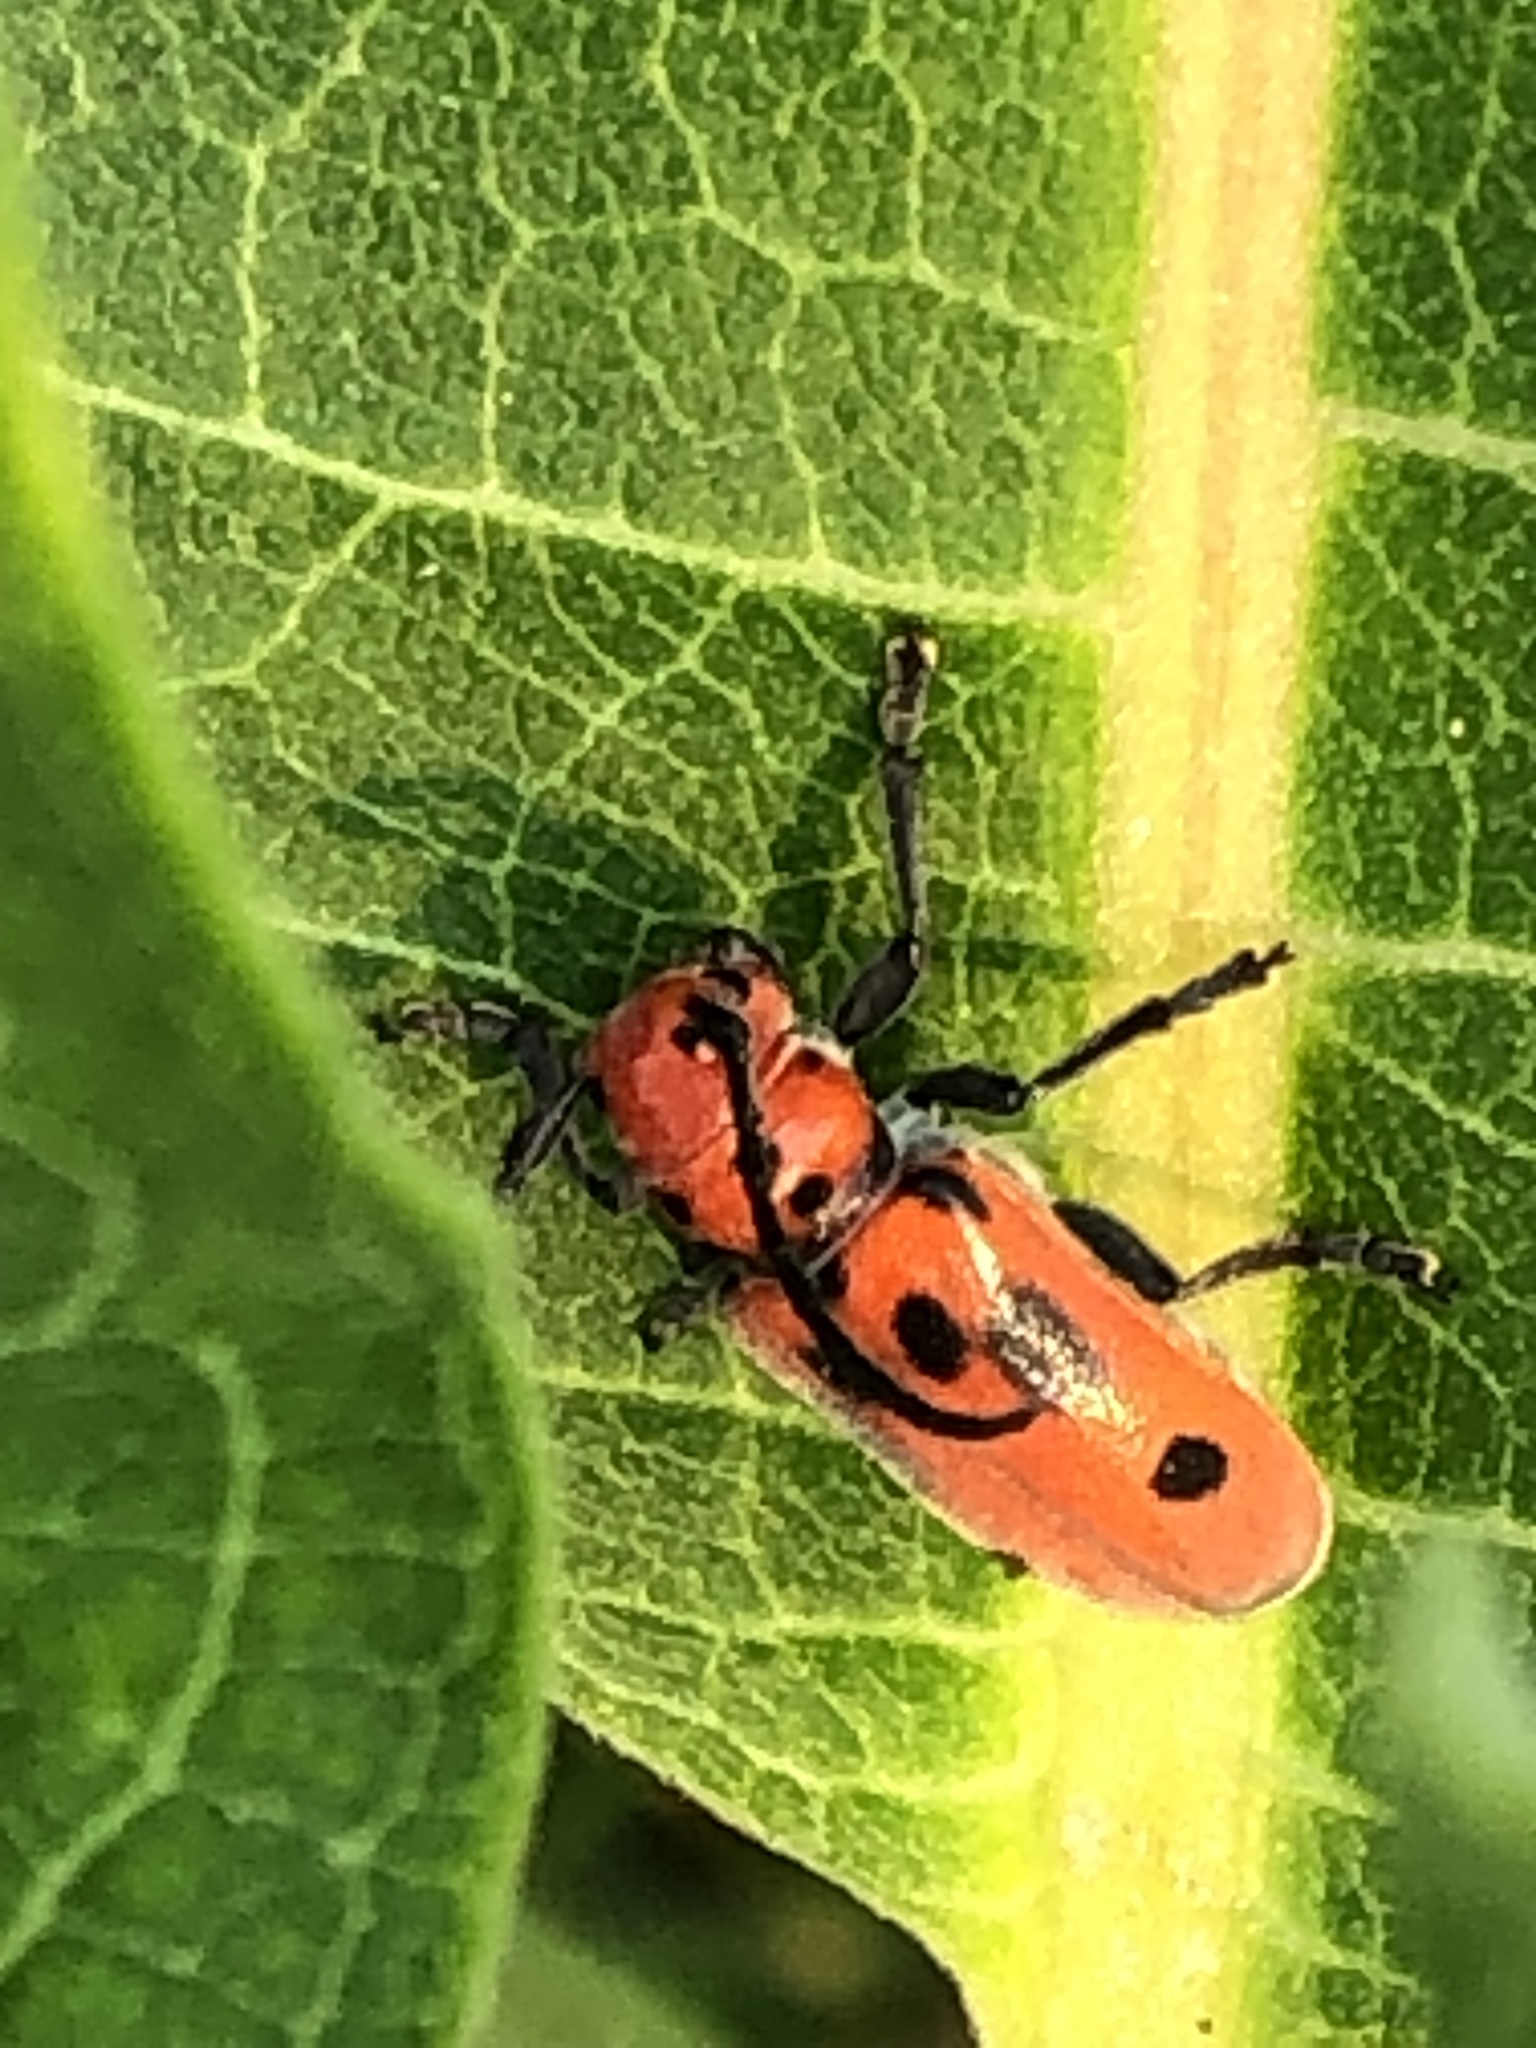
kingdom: Animalia
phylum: Arthropoda
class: Insecta
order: Coleoptera
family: Cerambycidae
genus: Tetraopes
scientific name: Tetraopes tetrophthalmus
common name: Red milkweed beetle
